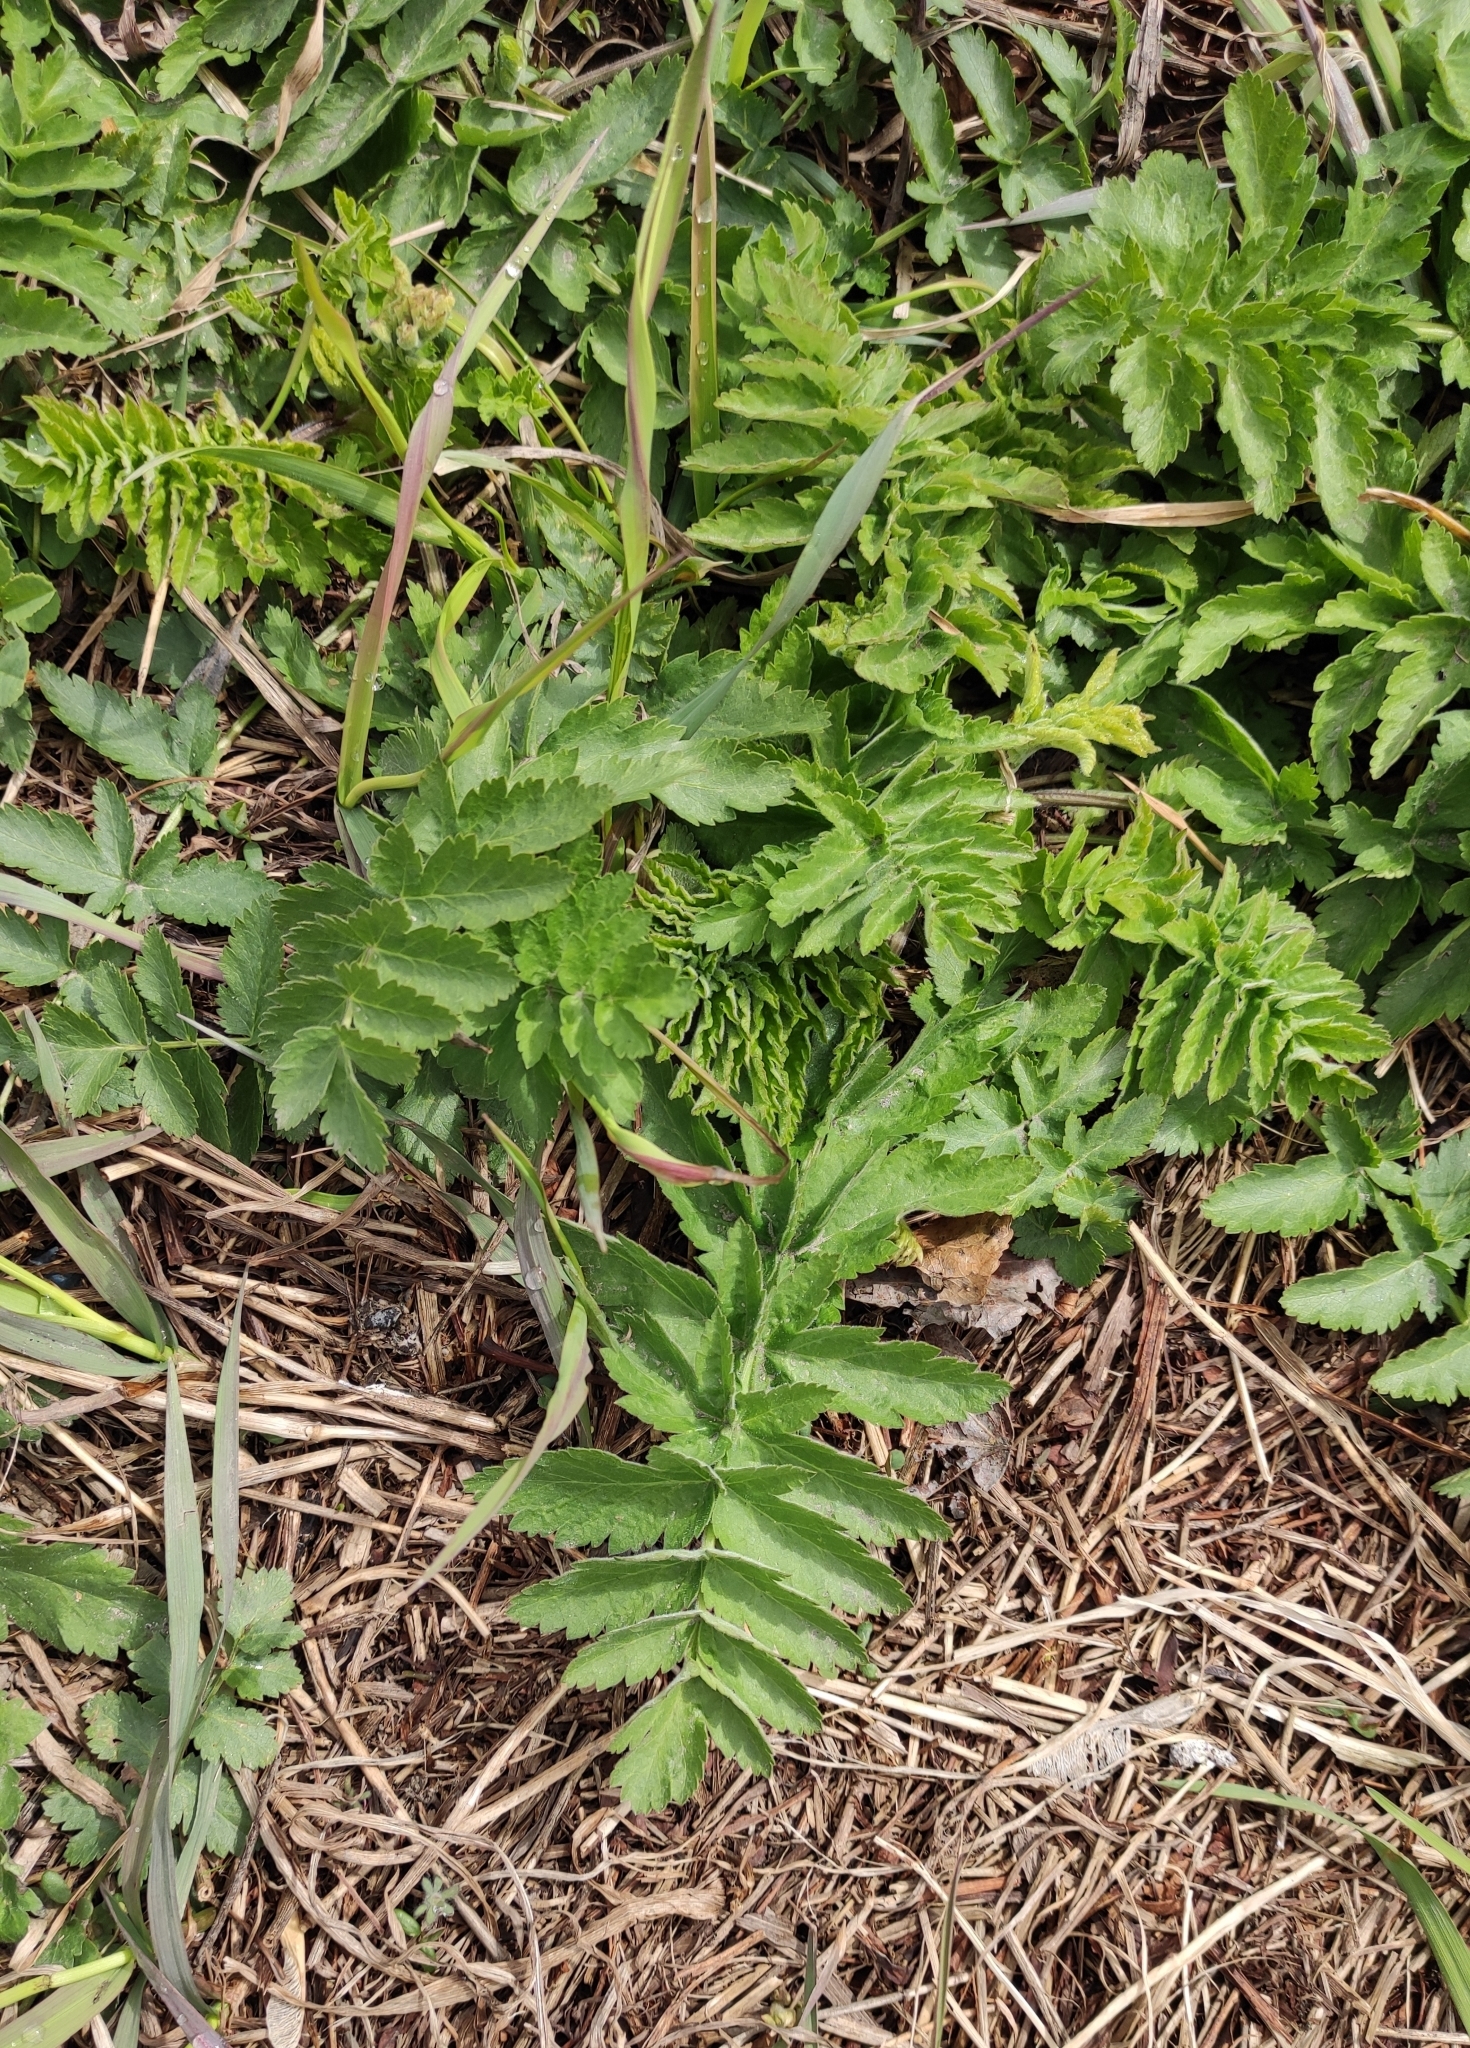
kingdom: Plantae
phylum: Tracheophyta
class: Magnoliopsida
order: Apiales
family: Apiaceae
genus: Pastinaca
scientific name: Pastinaca sativa
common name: Wild parsnip
